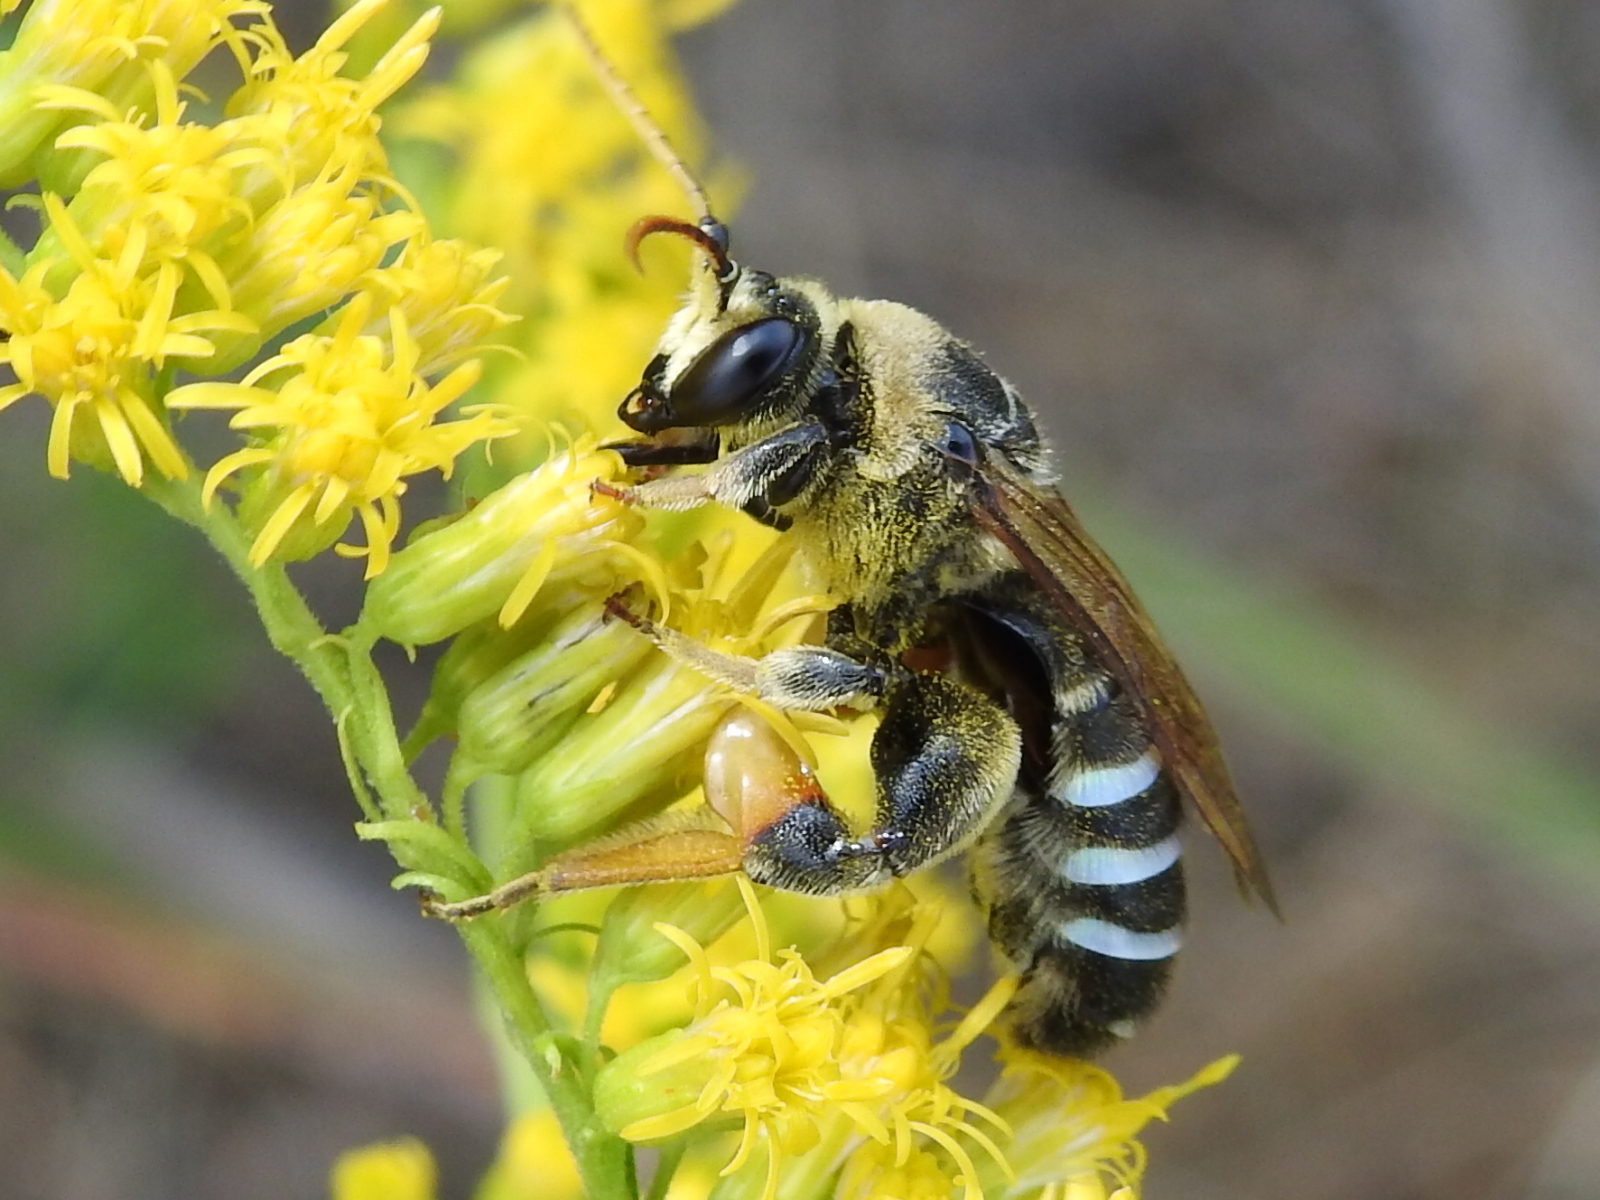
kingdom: Animalia
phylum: Arthropoda
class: Insecta
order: Hymenoptera
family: Halictidae
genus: Nomia
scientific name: Nomia nortoni
